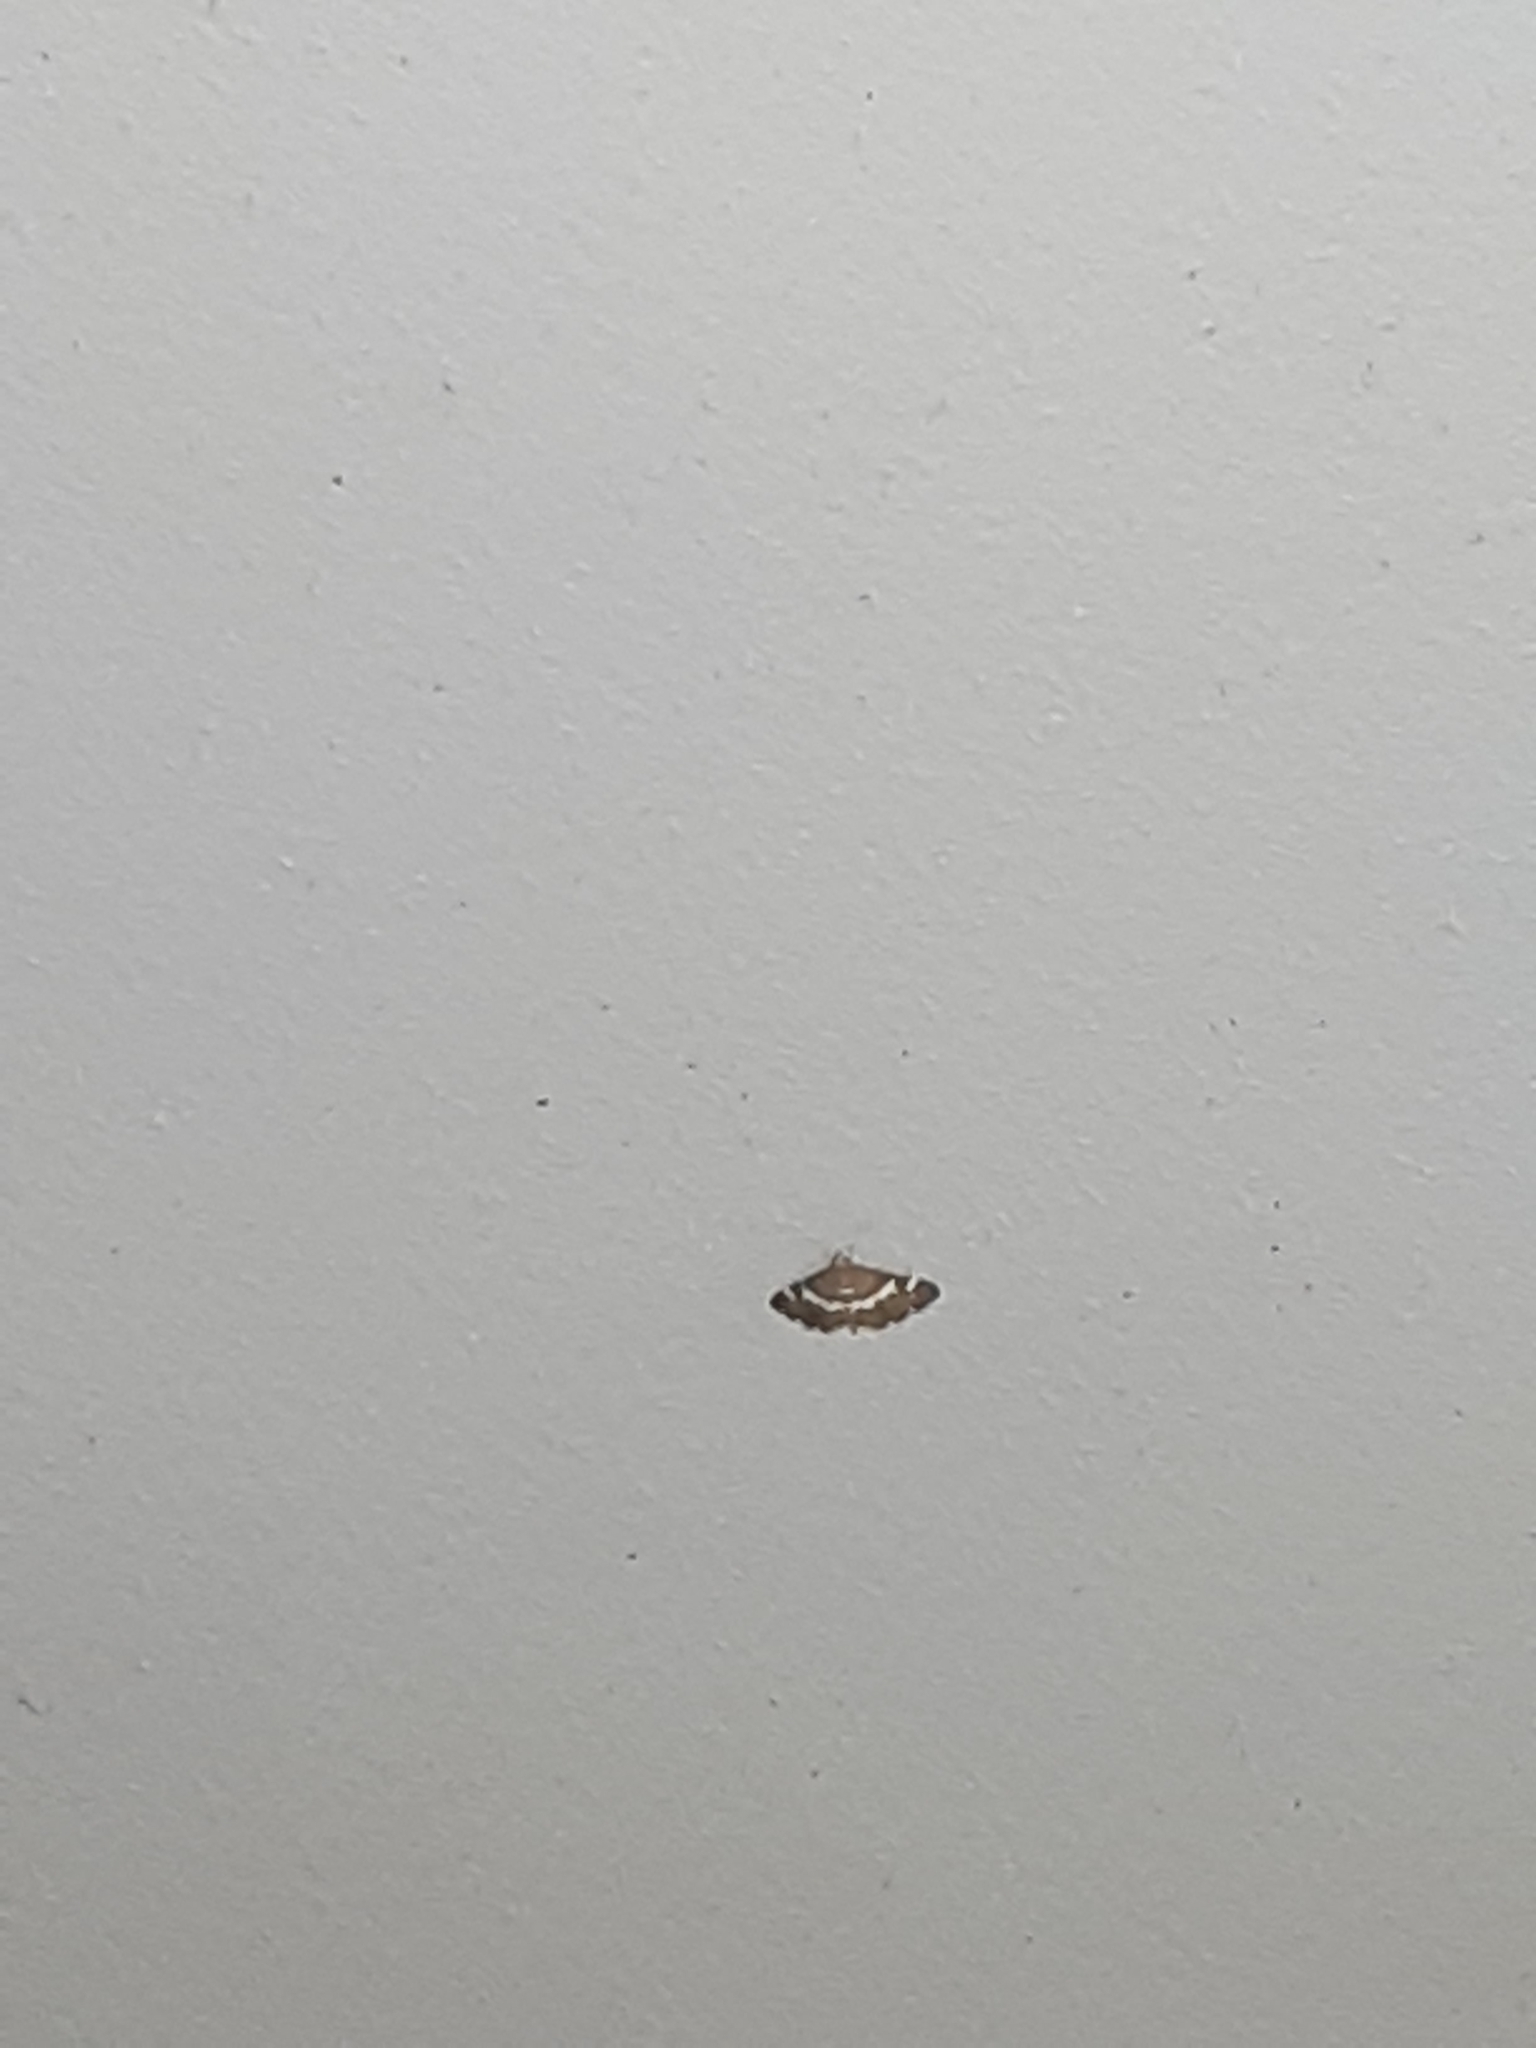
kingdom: Animalia
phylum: Arthropoda
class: Insecta
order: Lepidoptera
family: Crambidae
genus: Spoladea
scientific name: Spoladea recurvalis
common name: Beet webworm moth
